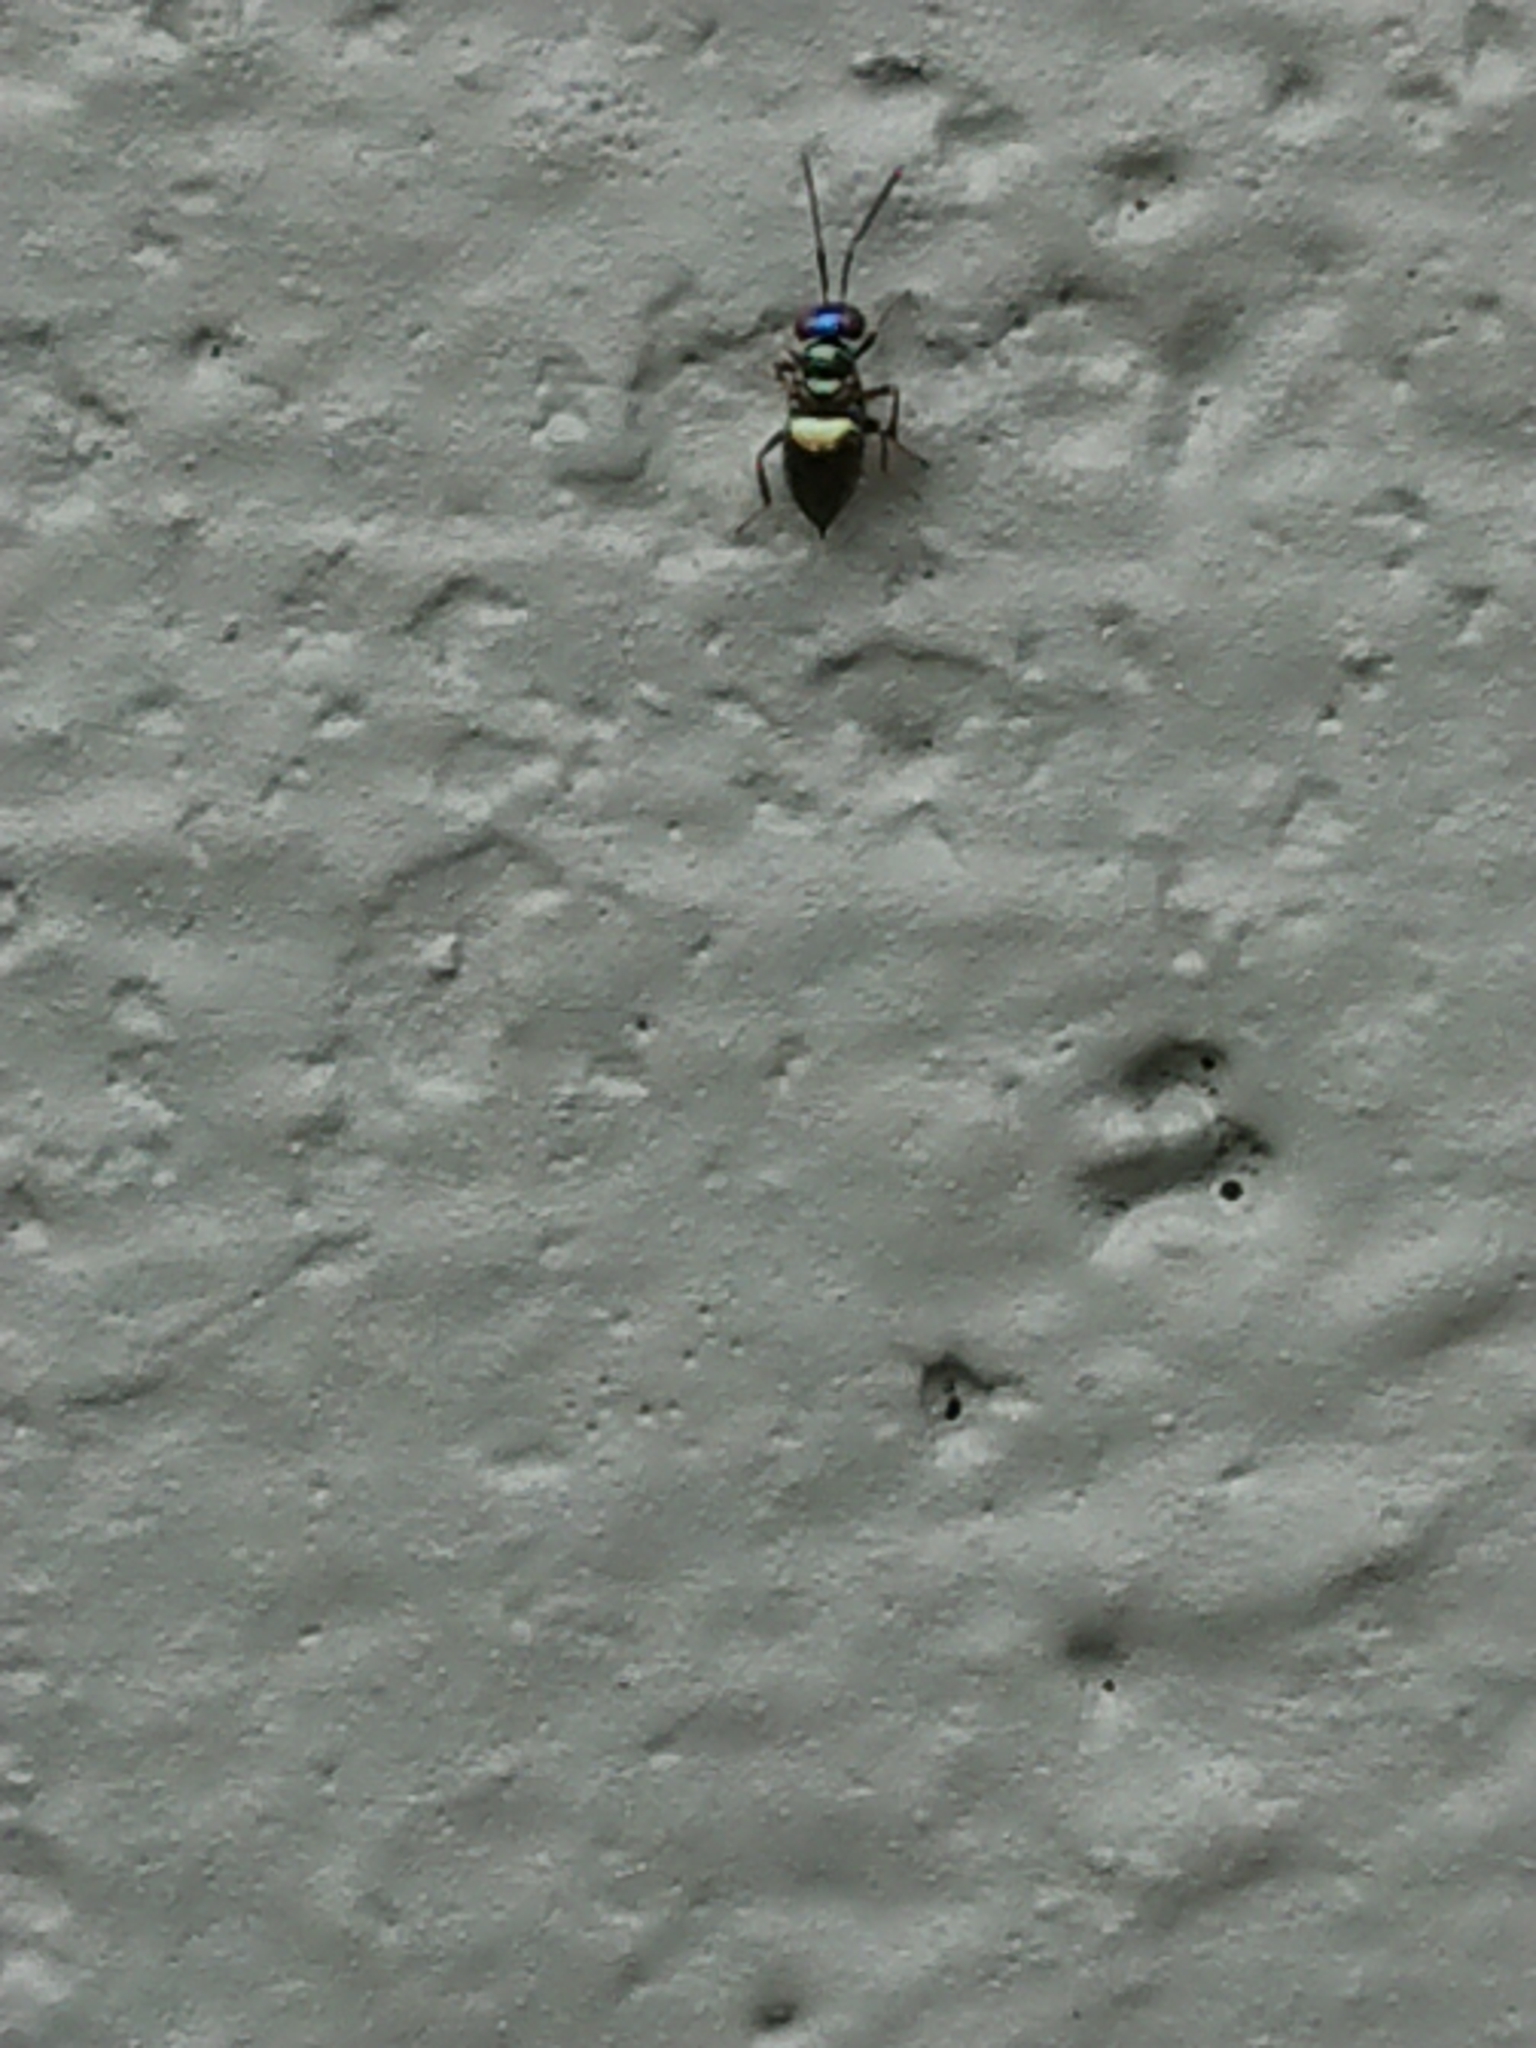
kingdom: Animalia
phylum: Arthropoda
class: Insecta
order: Hymenoptera
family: Encyrtidae
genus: Odiaglyptus
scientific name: Odiaglyptus biformis
